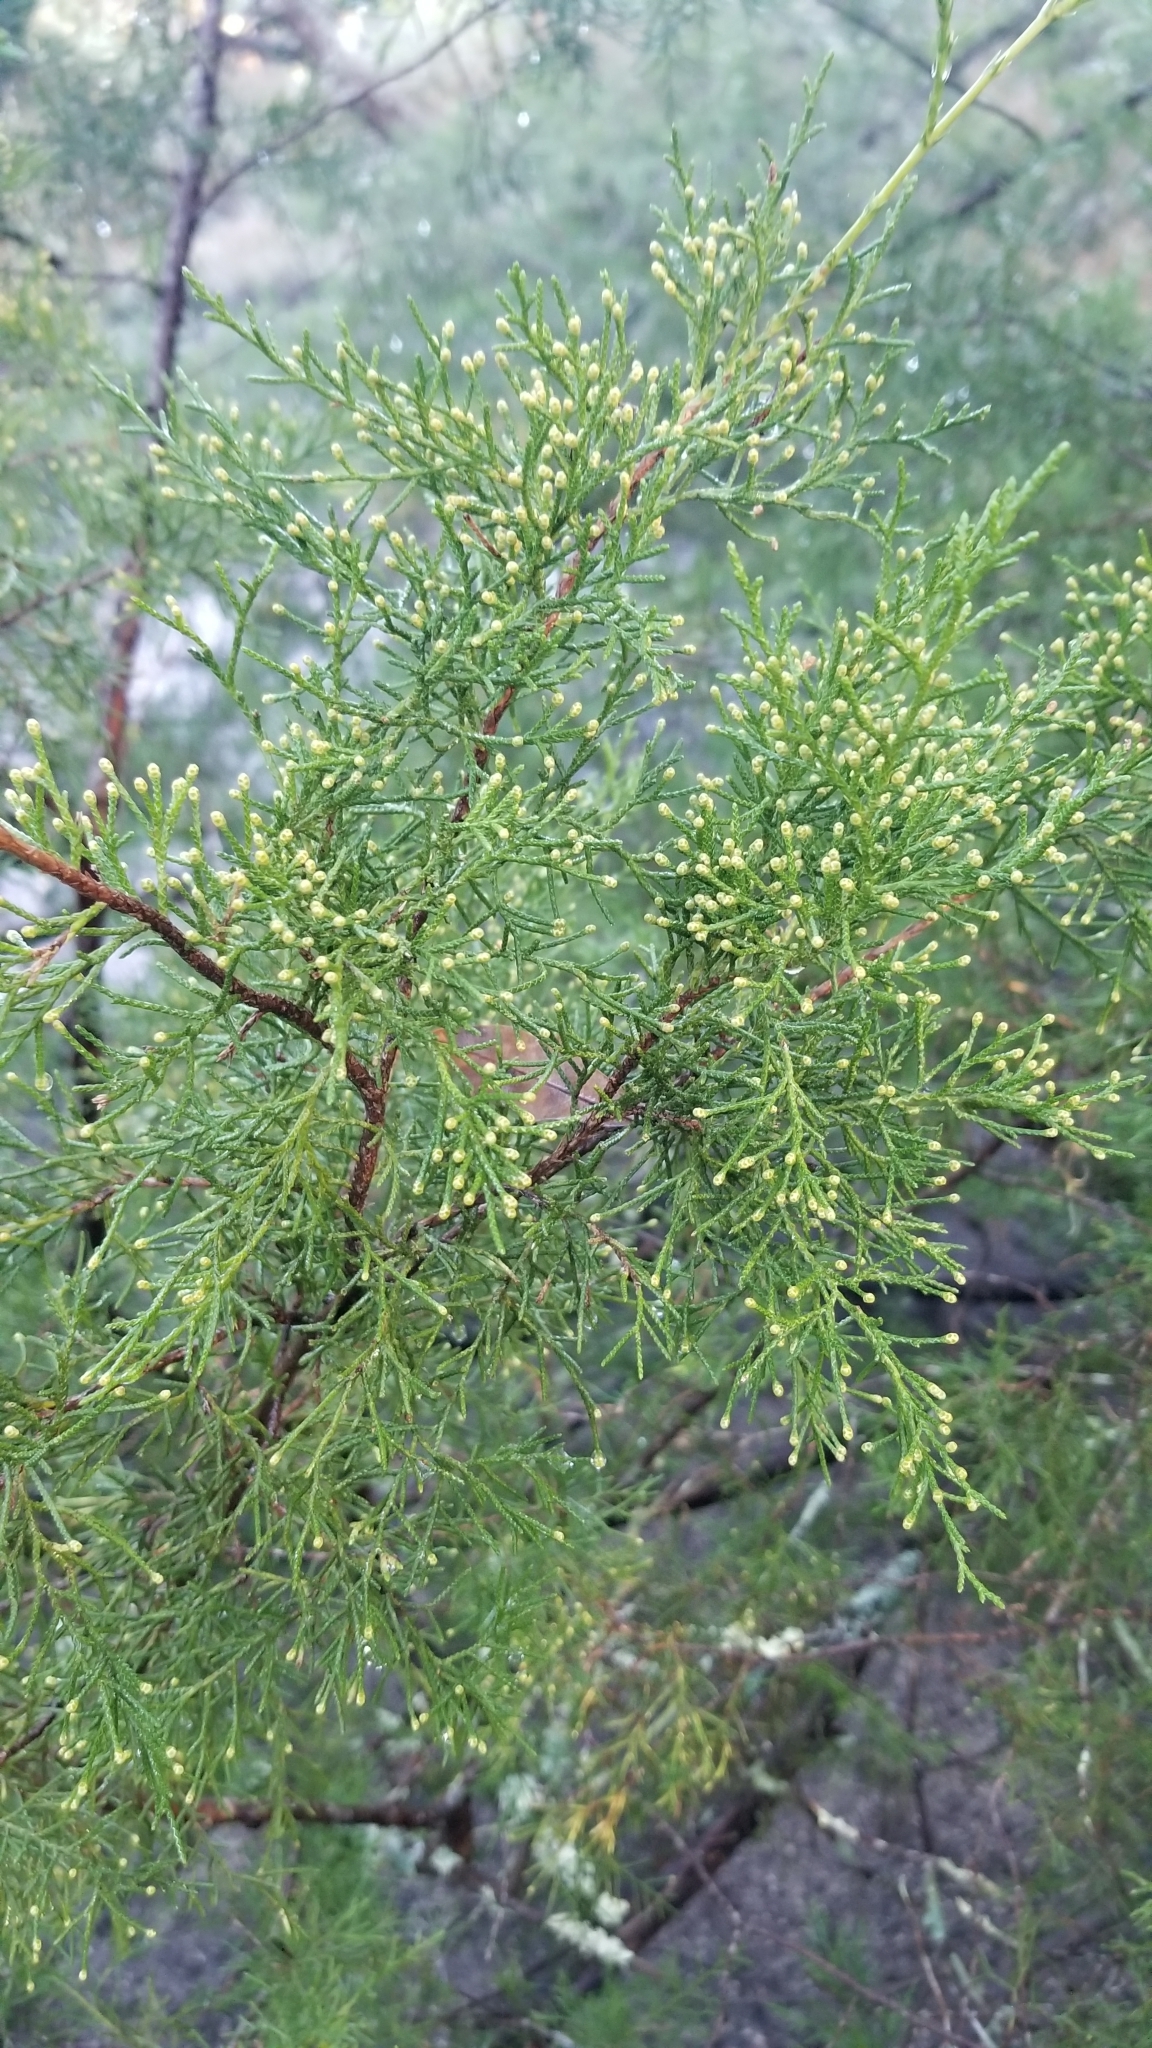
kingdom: Plantae
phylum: Tracheophyta
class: Pinopsida
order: Pinales
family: Cupressaceae
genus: Juniperus
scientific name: Juniperus virginiana
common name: Red juniper
